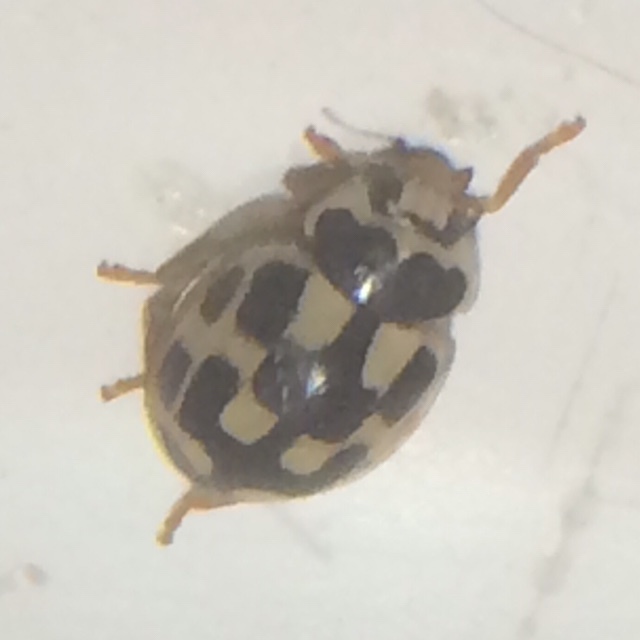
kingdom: Animalia
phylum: Arthropoda
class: Insecta
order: Coleoptera
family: Coccinellidae
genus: Propylaea
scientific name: Propylaea quatuordecimpunctata
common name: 14-spotted ladybird beetle
